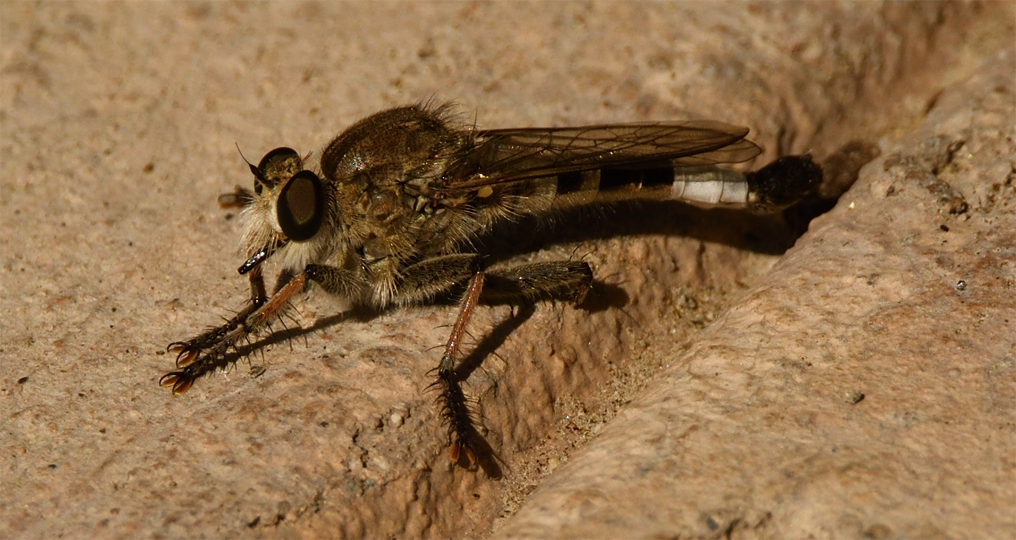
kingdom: Animalia
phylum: Arthropoda
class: Insecta
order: Diptera
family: Asilidae
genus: Efferia
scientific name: Efferia albibarbis
